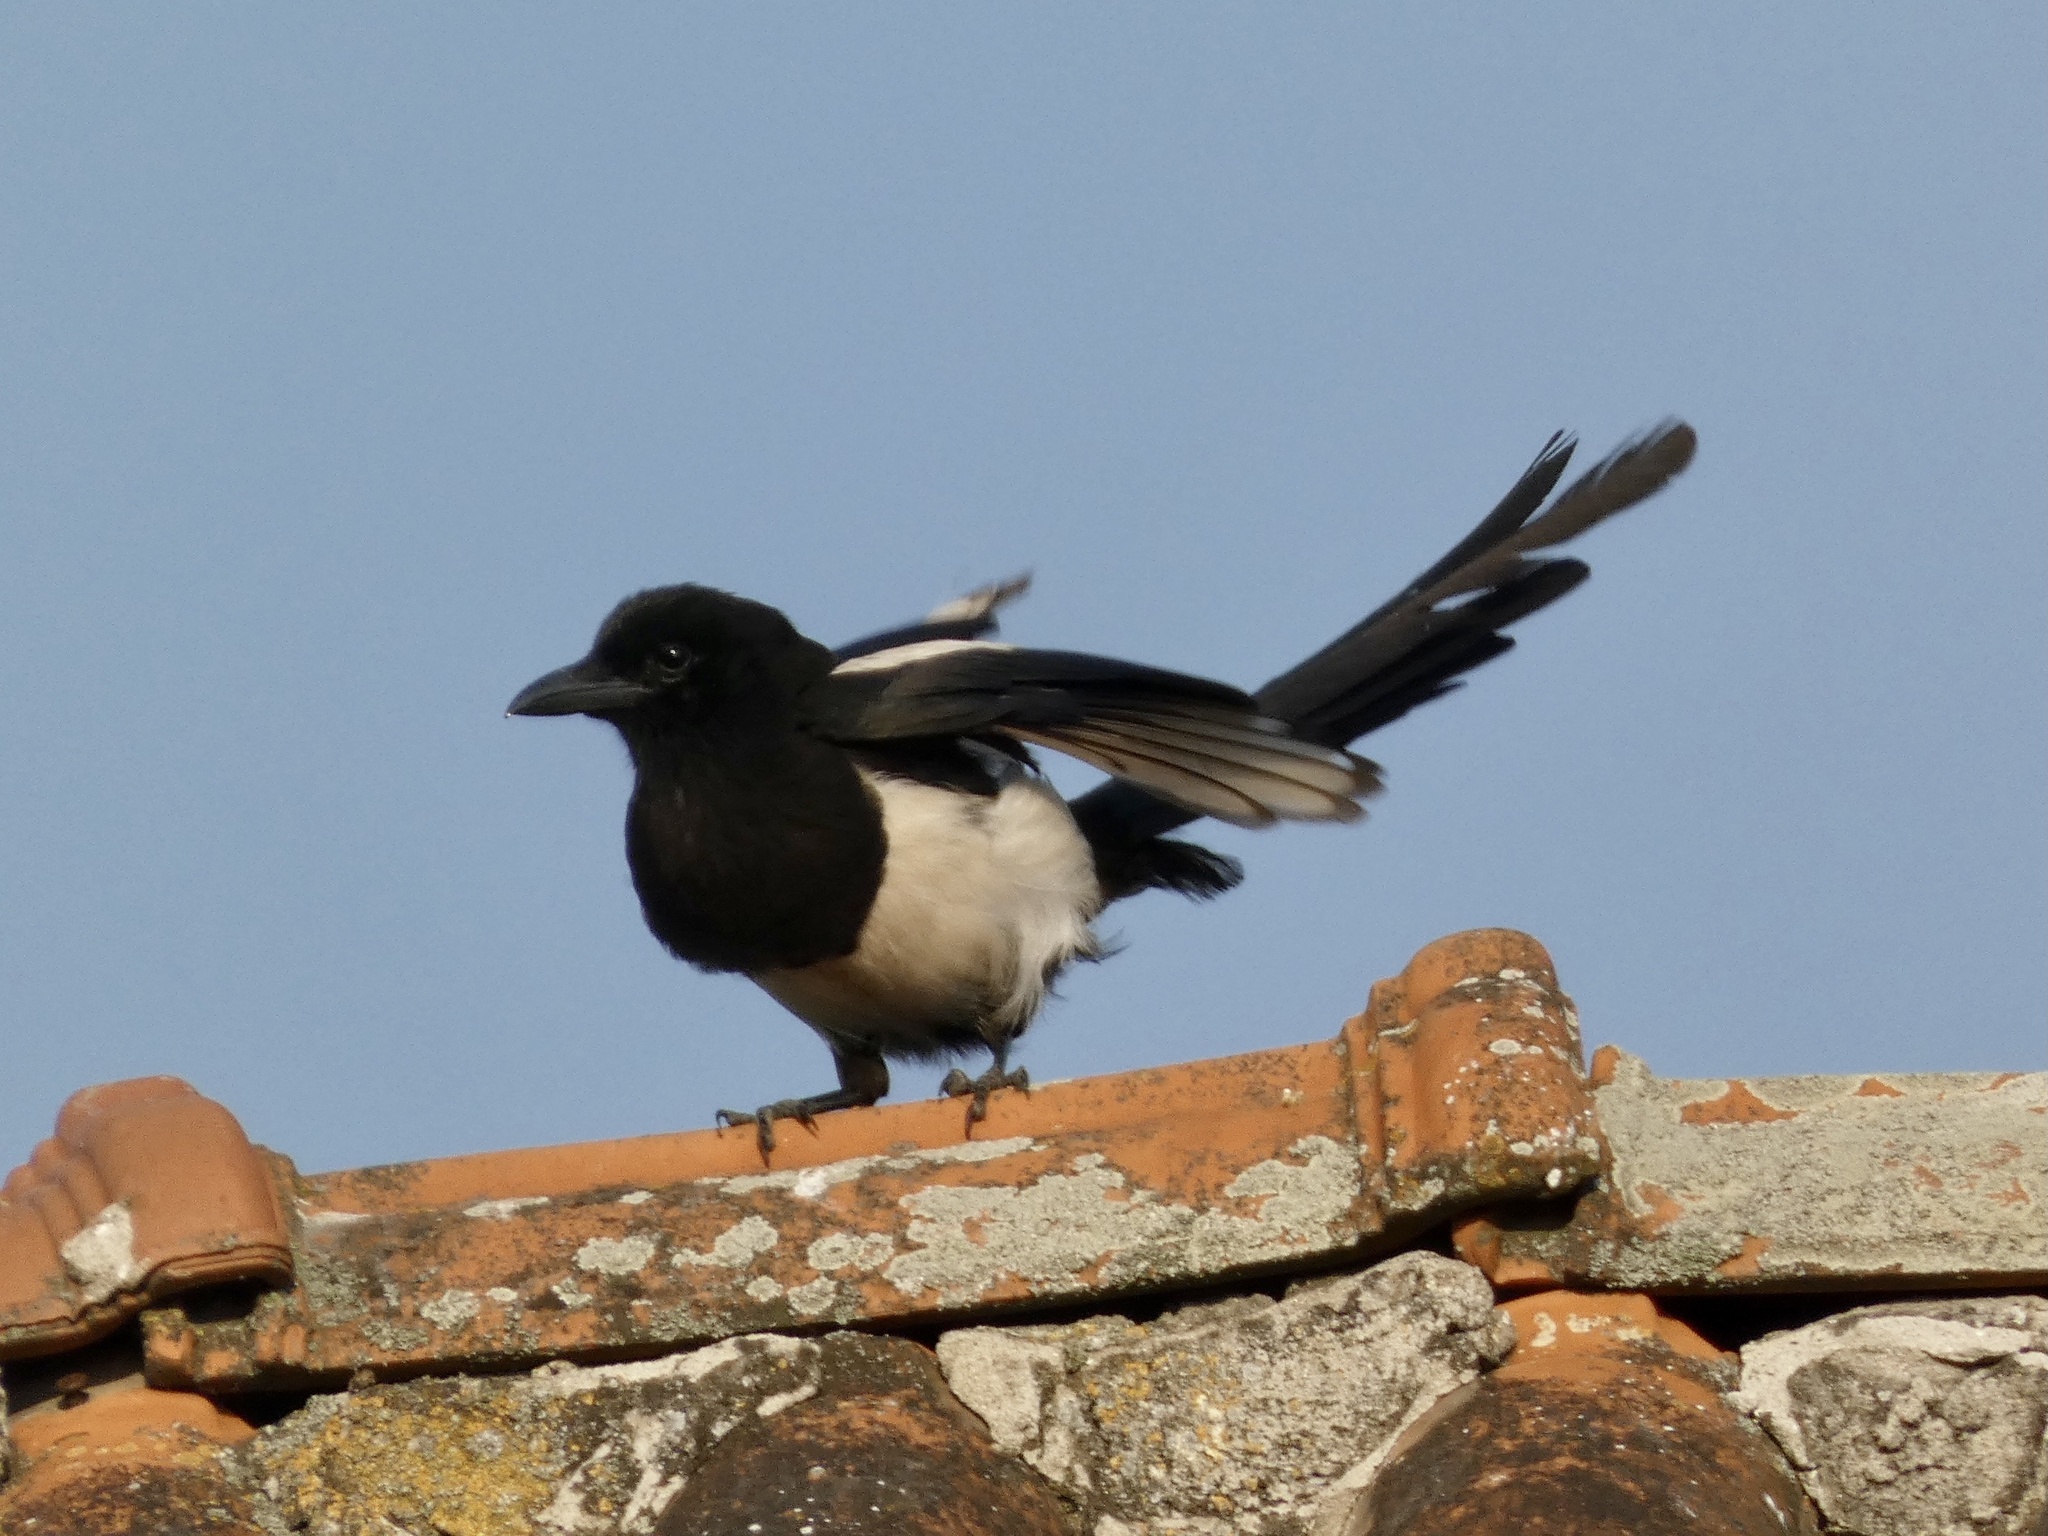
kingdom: Animalia
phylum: Chordata
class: Aves
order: Passeriformes
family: Corvidae
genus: Pica
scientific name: Pica pica
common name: Eurasian magpie
